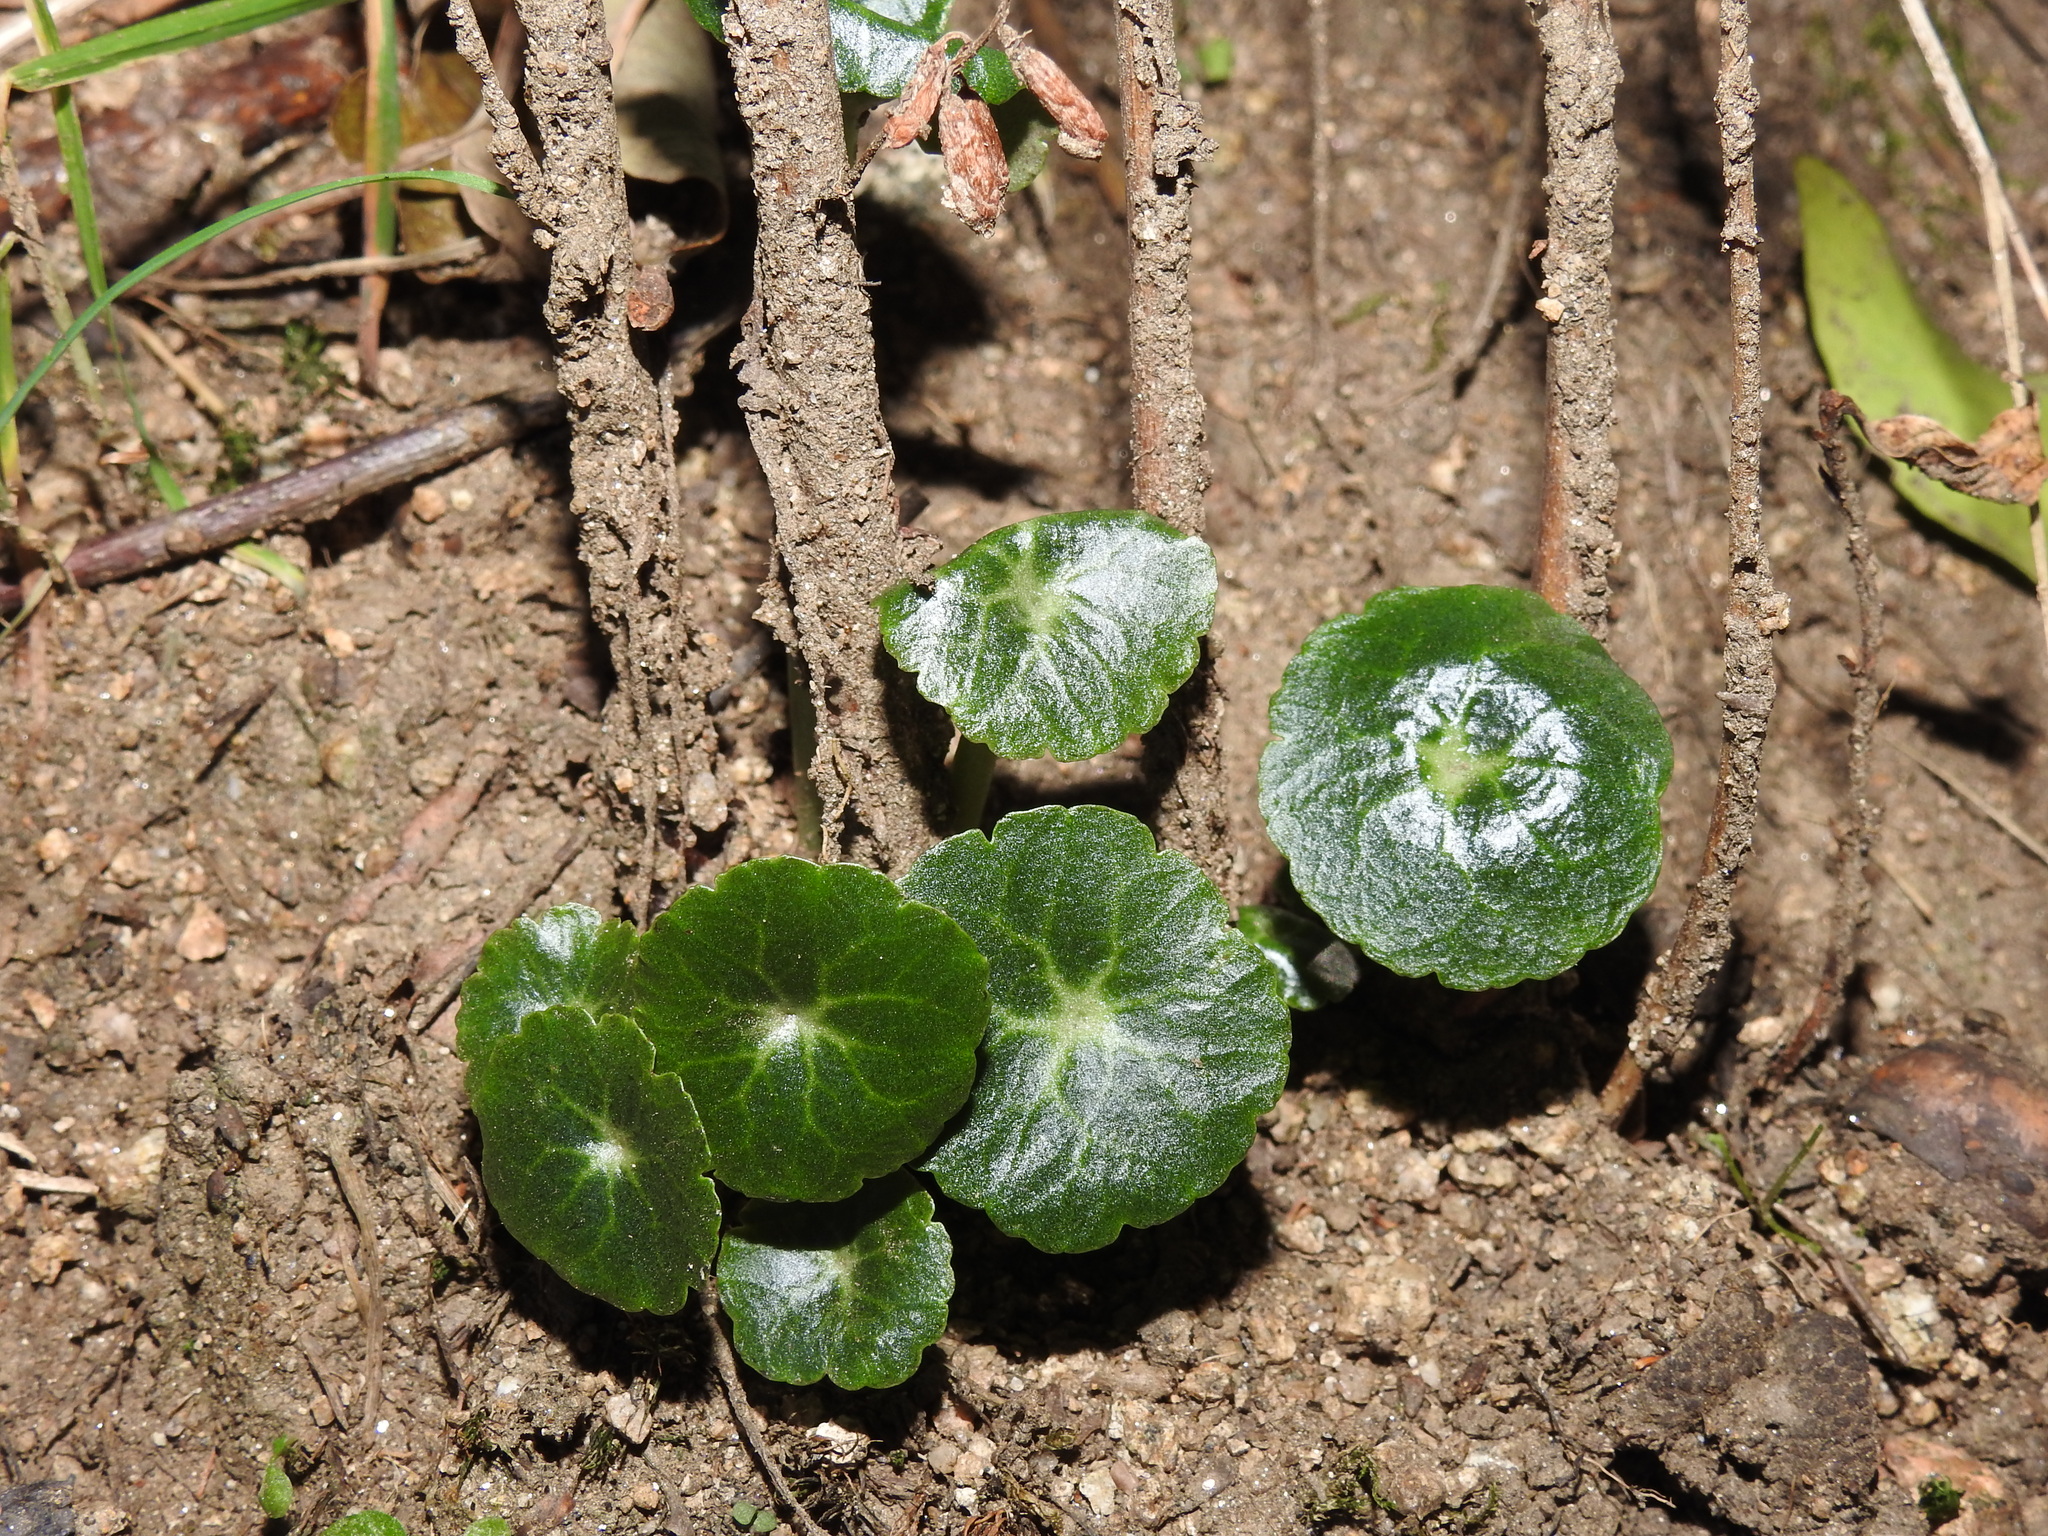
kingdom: Plantae
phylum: Tracheophyta
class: Magnoliopsida
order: Saxifragales
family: Crassulaceae
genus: Umbilicus
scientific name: Umbilicus rupestris
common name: Navelwort
